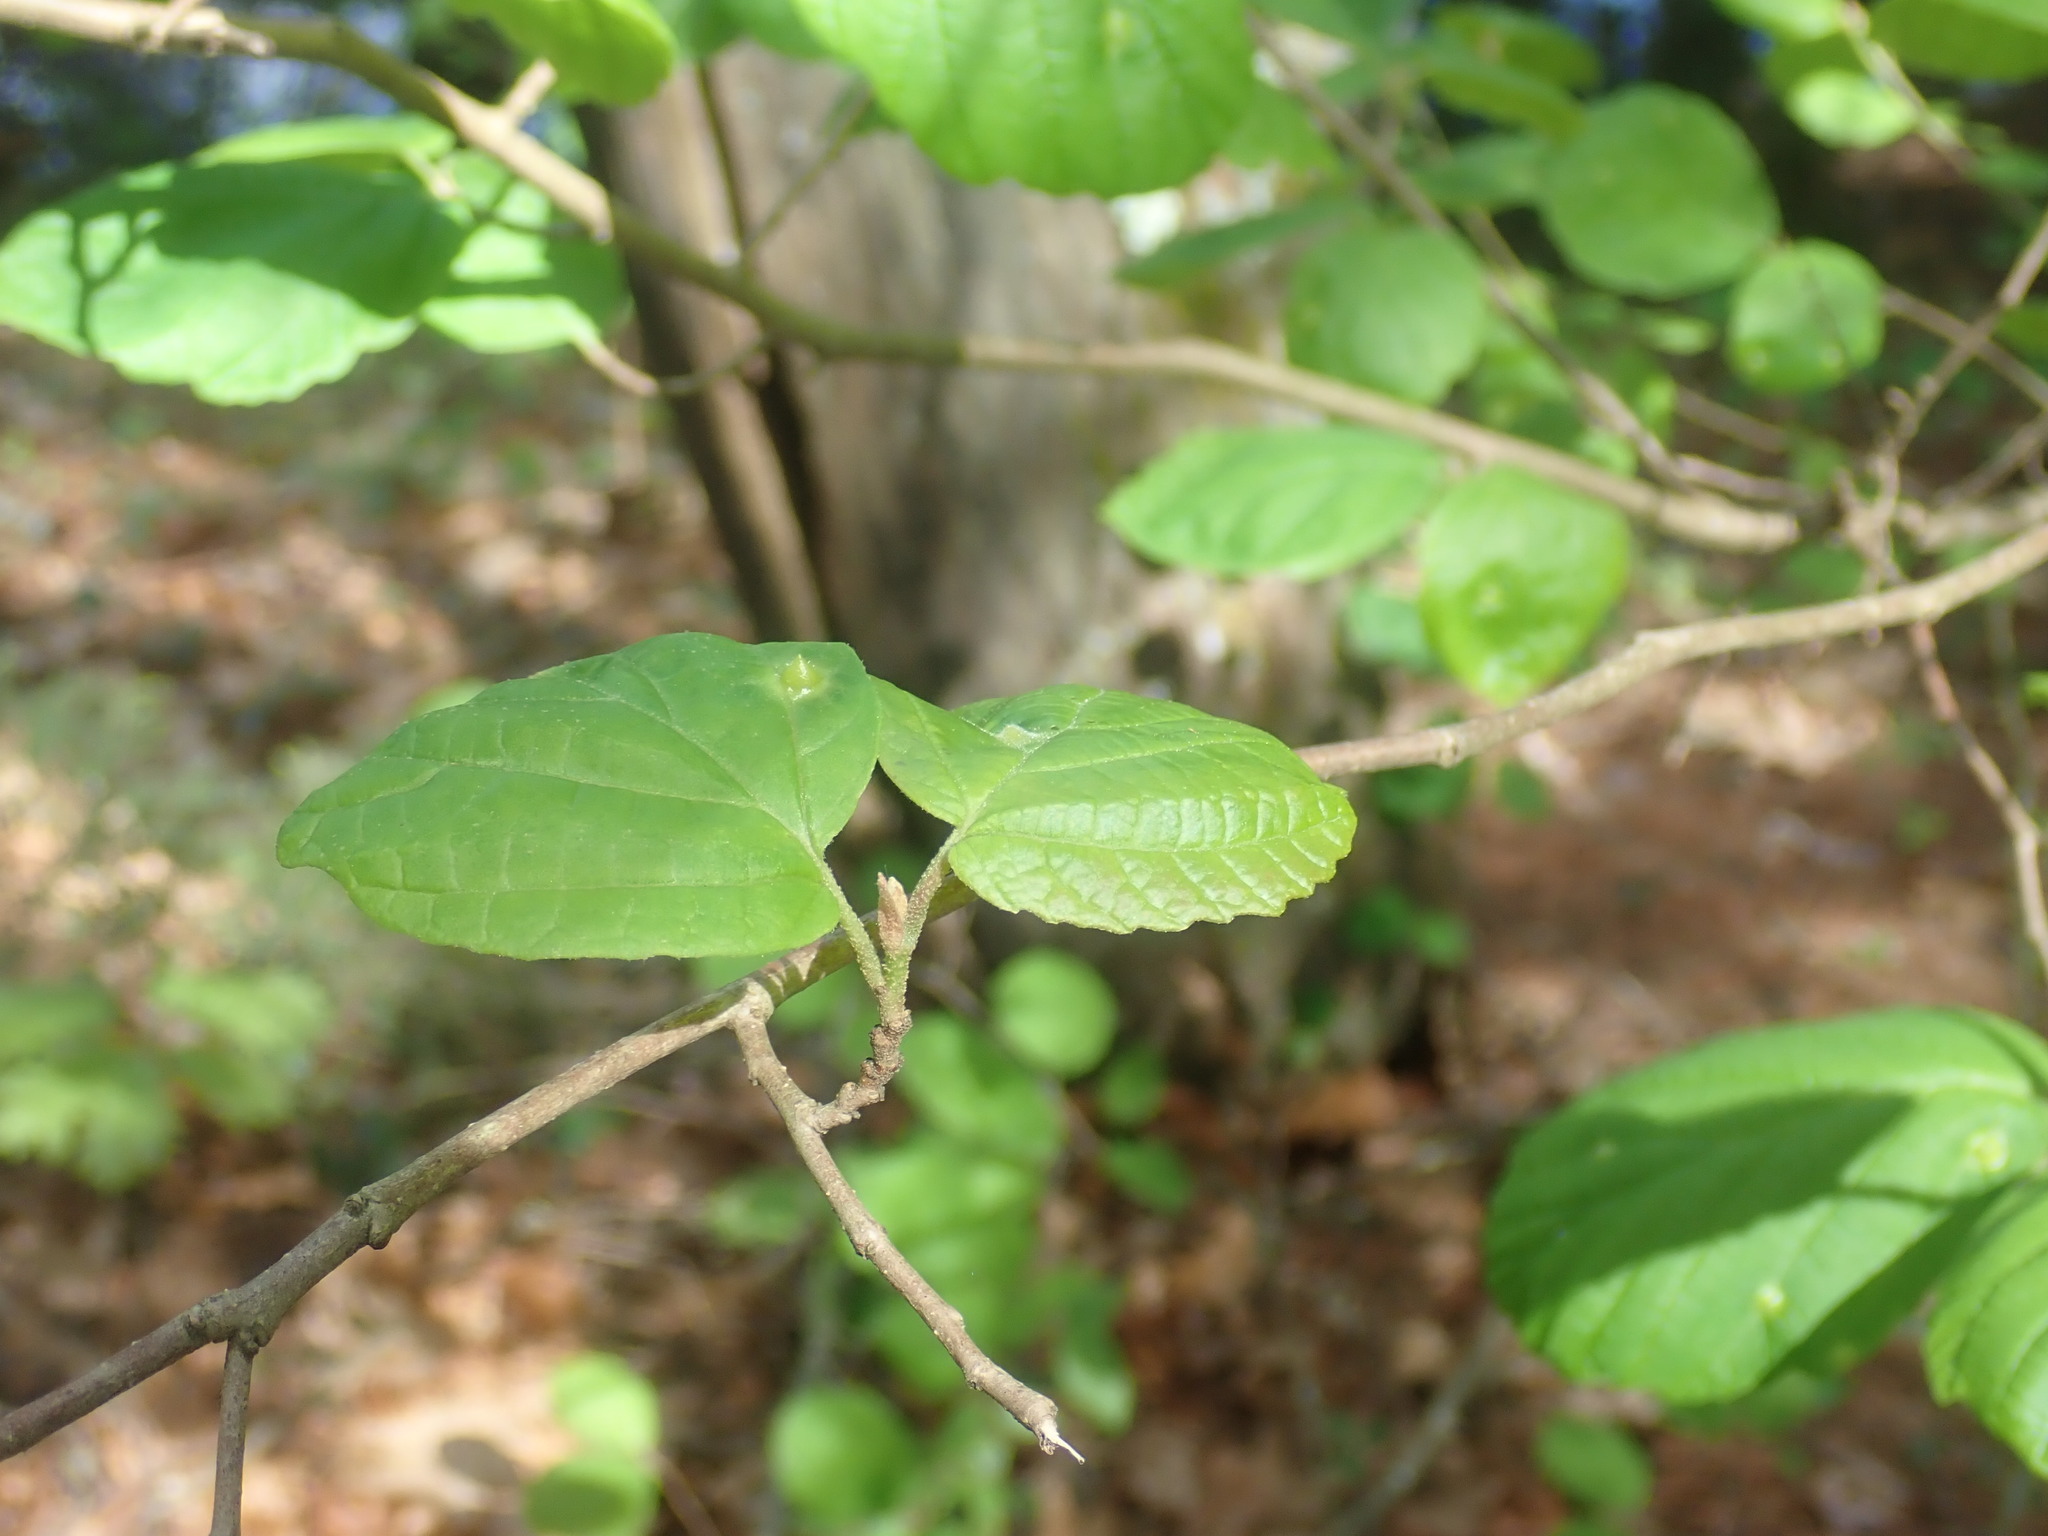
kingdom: Animalia
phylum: Arthropoda
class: Insecta
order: Hemiptera
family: Aphididae
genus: Hormaphis
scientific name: Hormaphis hamamelidis
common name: Witch-hazel cone gall aphid
